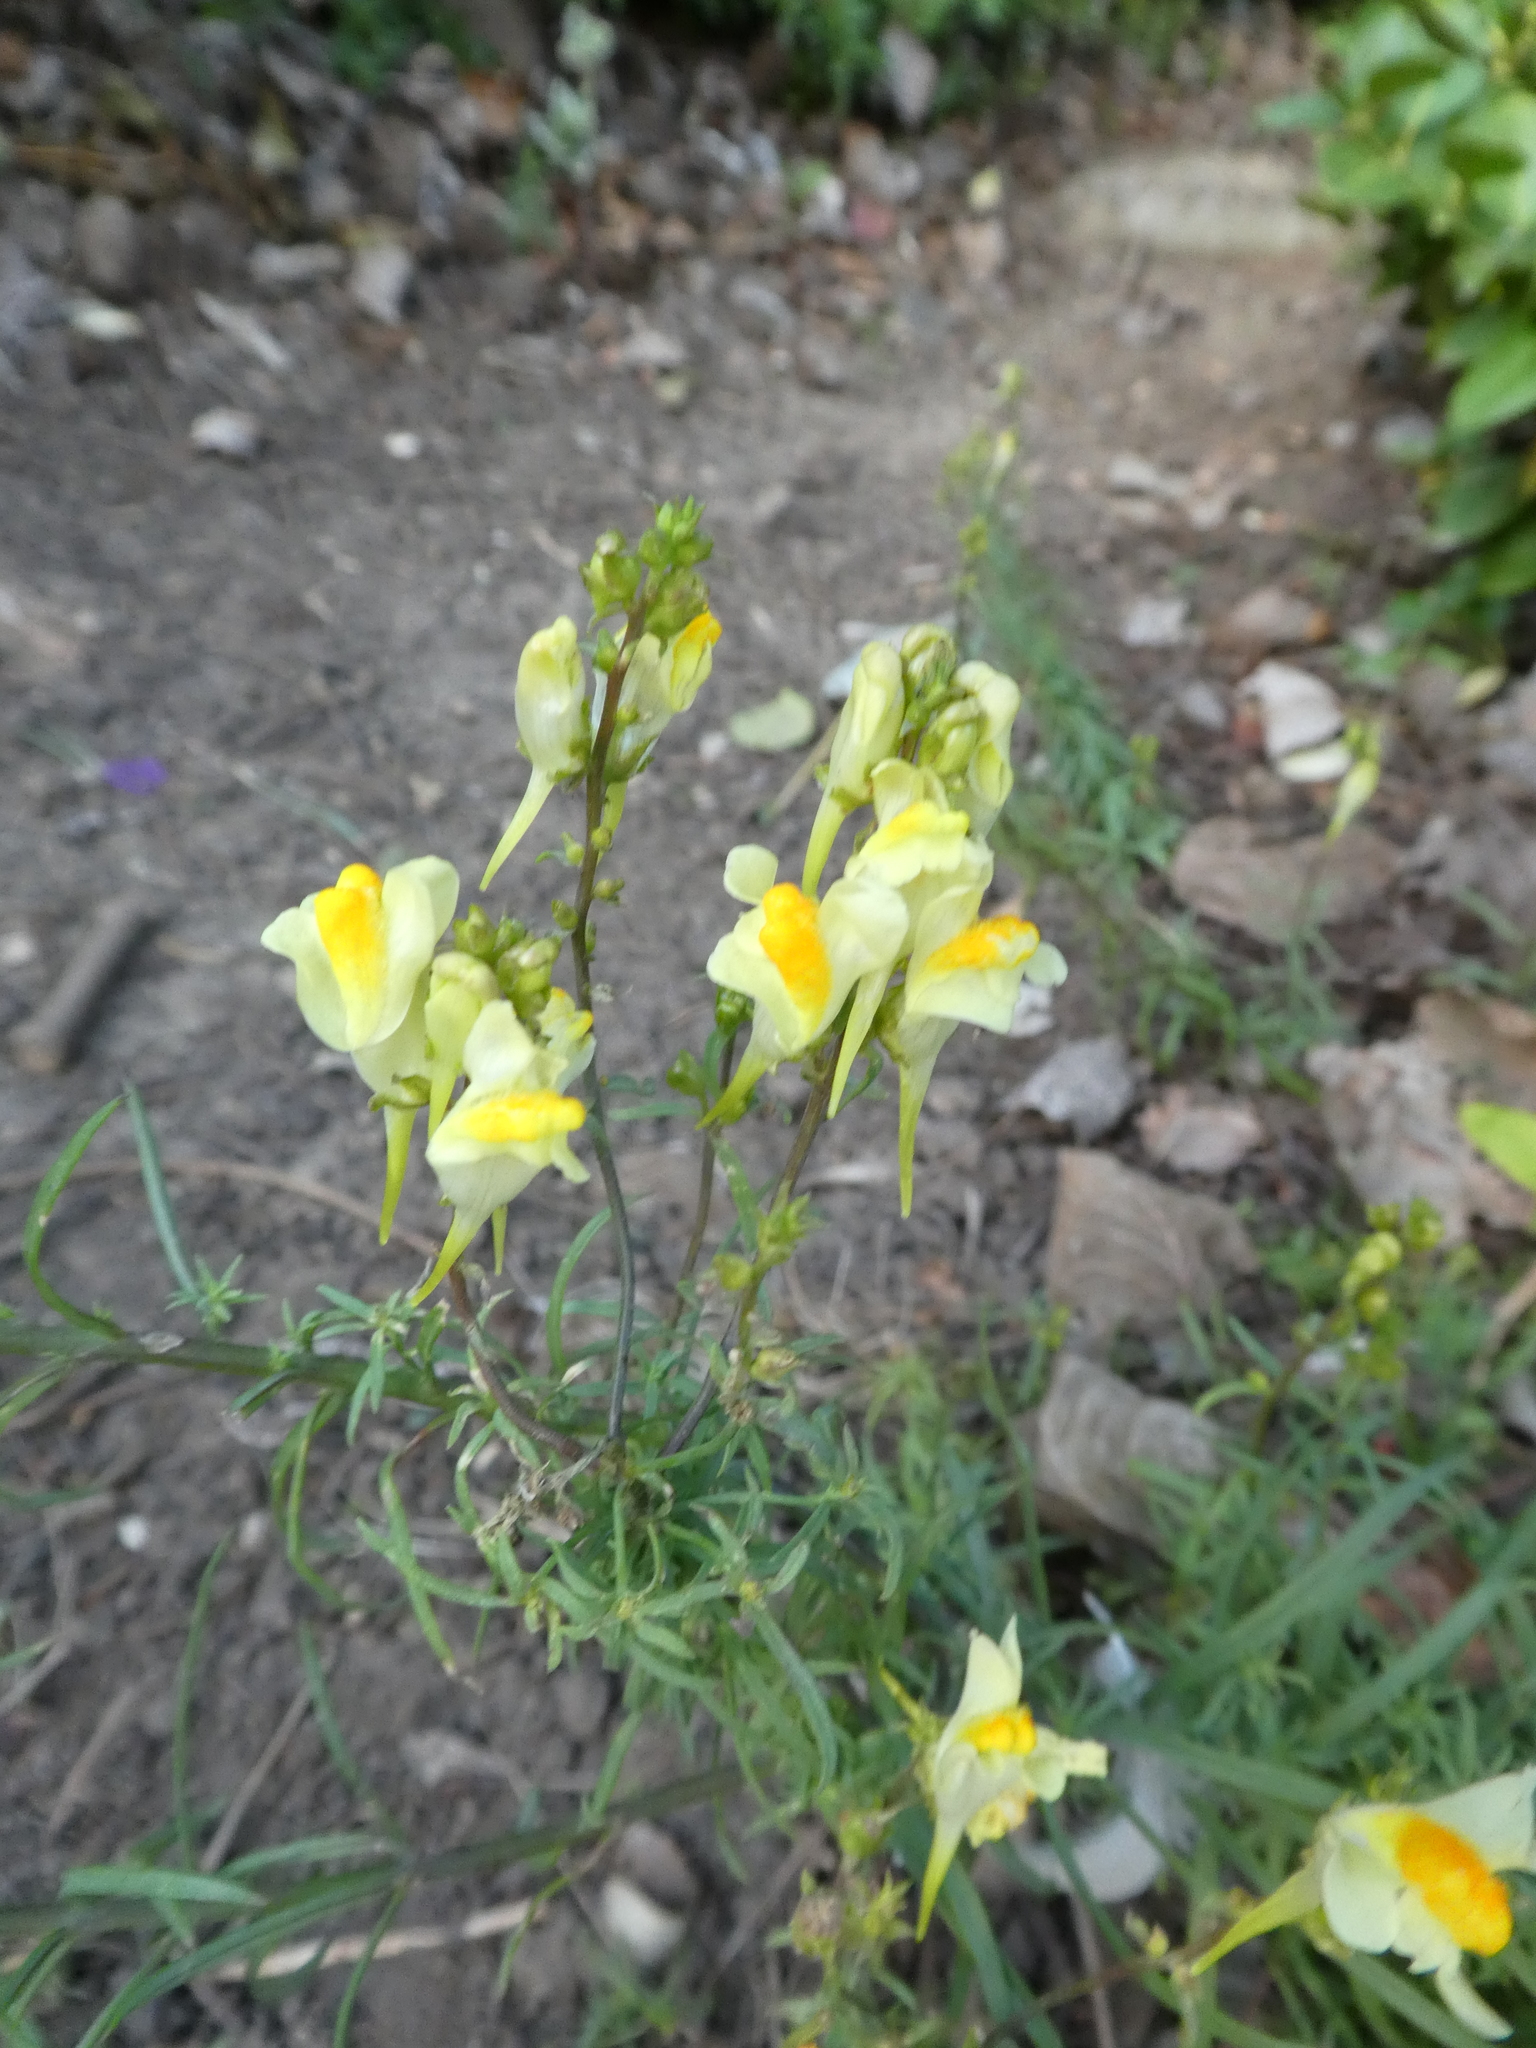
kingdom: Plantae
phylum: Tracheophyta
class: Magnoliopsida
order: Lamiales
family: Plantaginaceae
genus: Linaria
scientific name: Linaria vulgaris
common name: Butter and eggs
